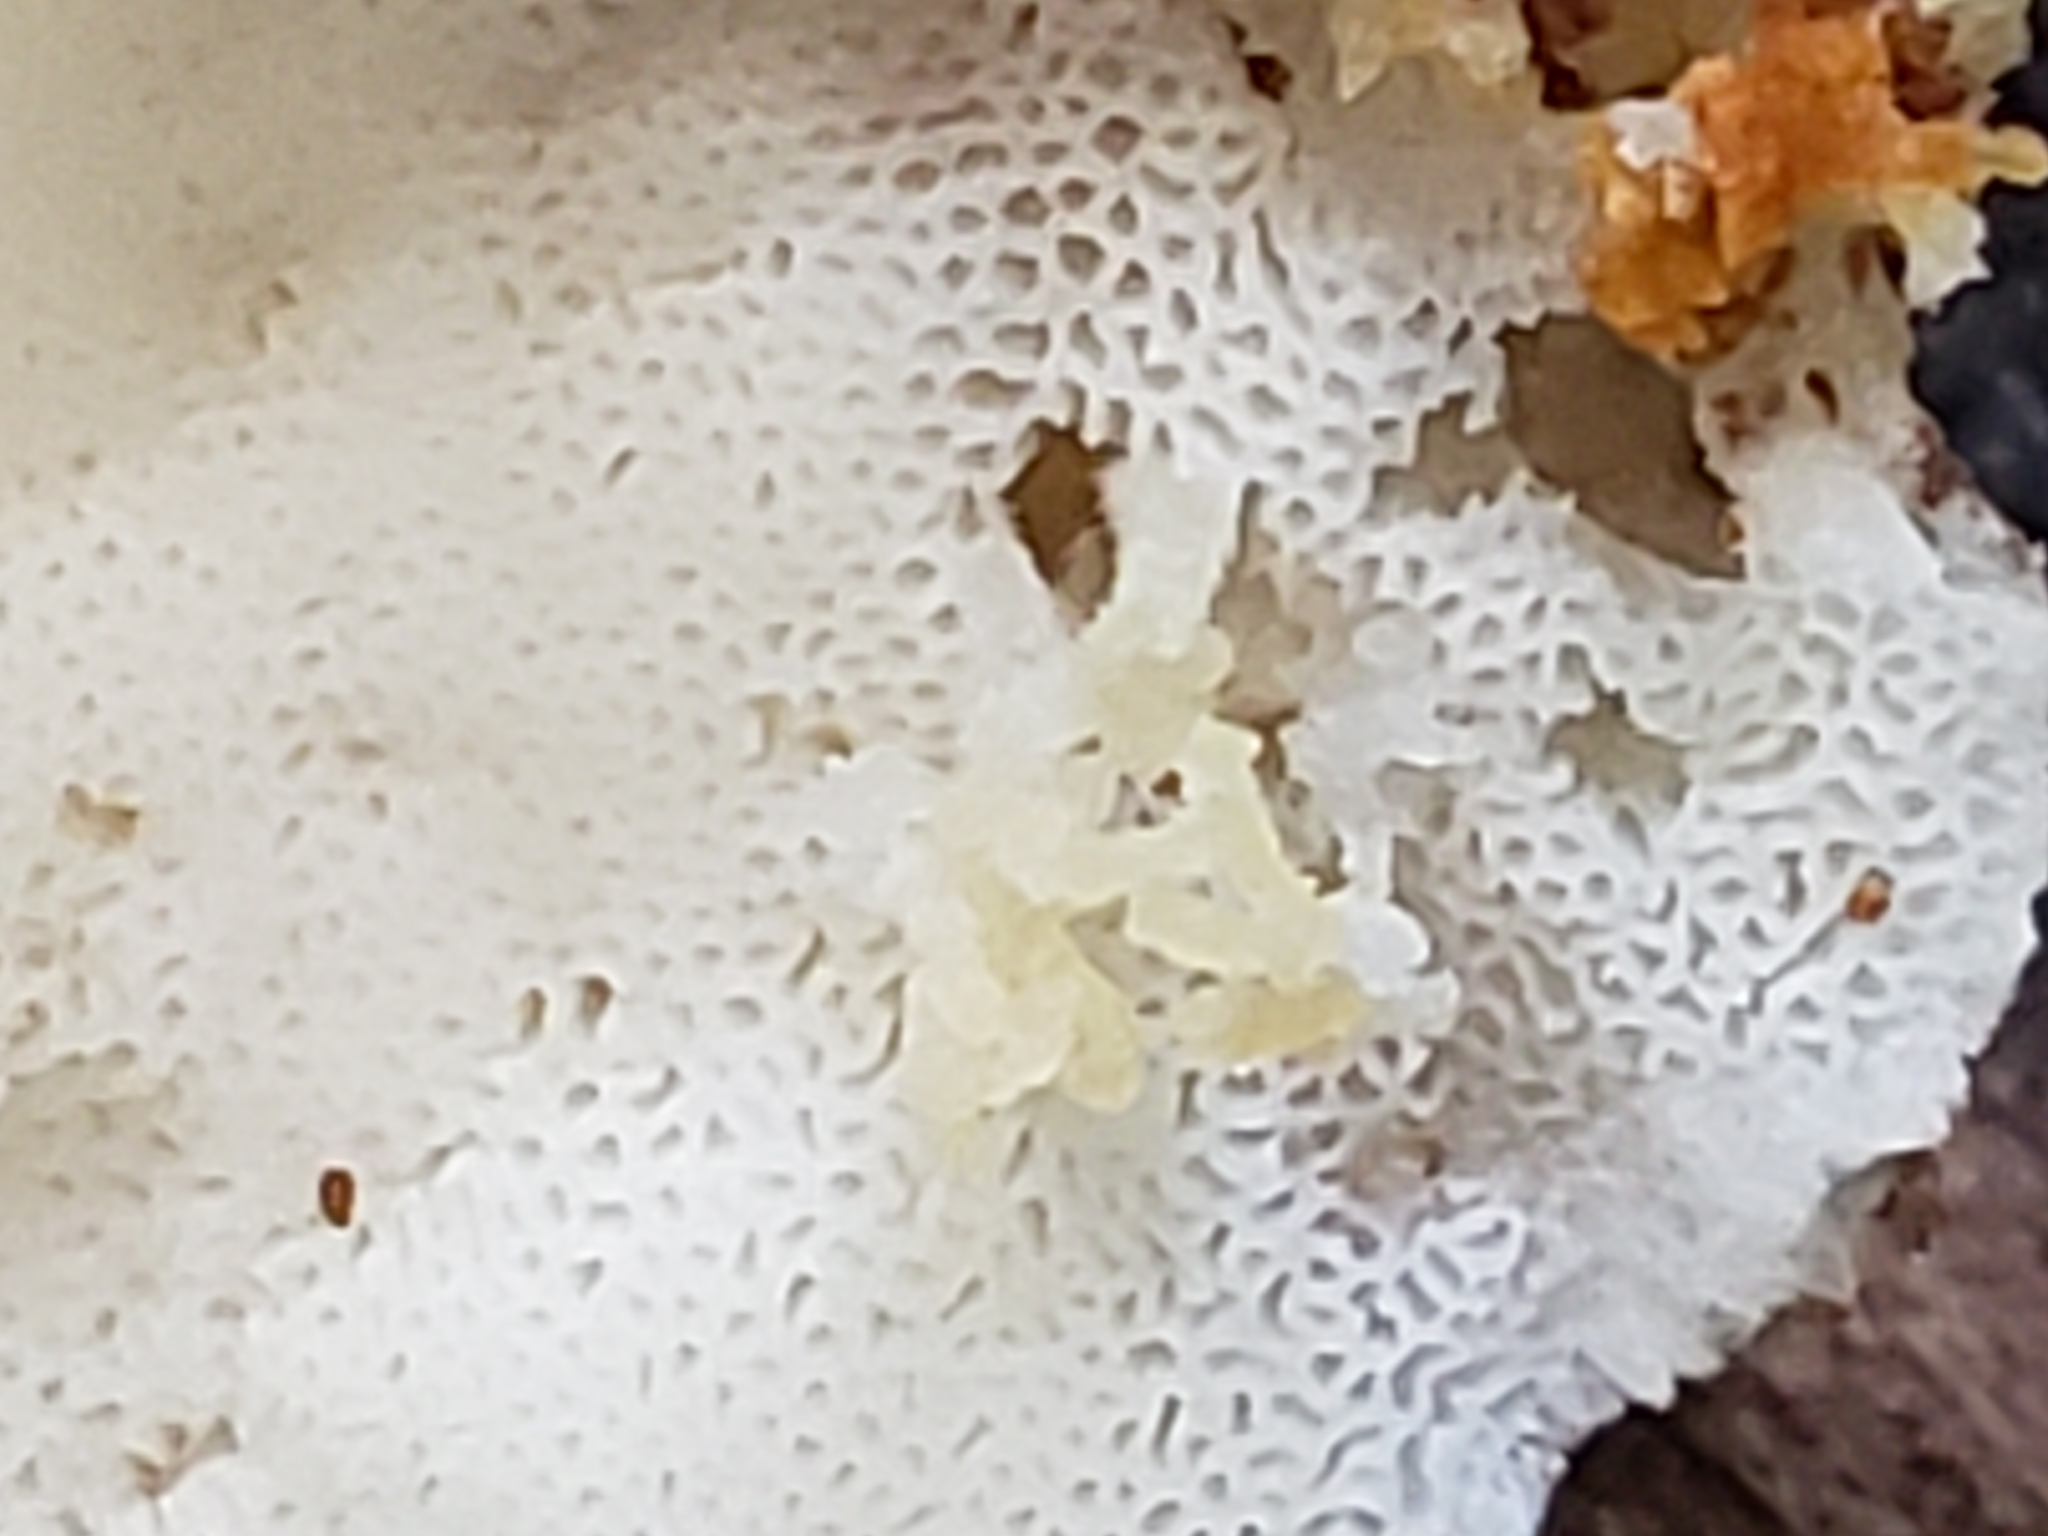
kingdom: Fungi
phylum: Basidiomycota
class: Agaricomycetes
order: Polyporales
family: Incrustoporiaceae
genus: Tyromyces
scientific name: Tyromyces chioneus
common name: White cheese polypore
